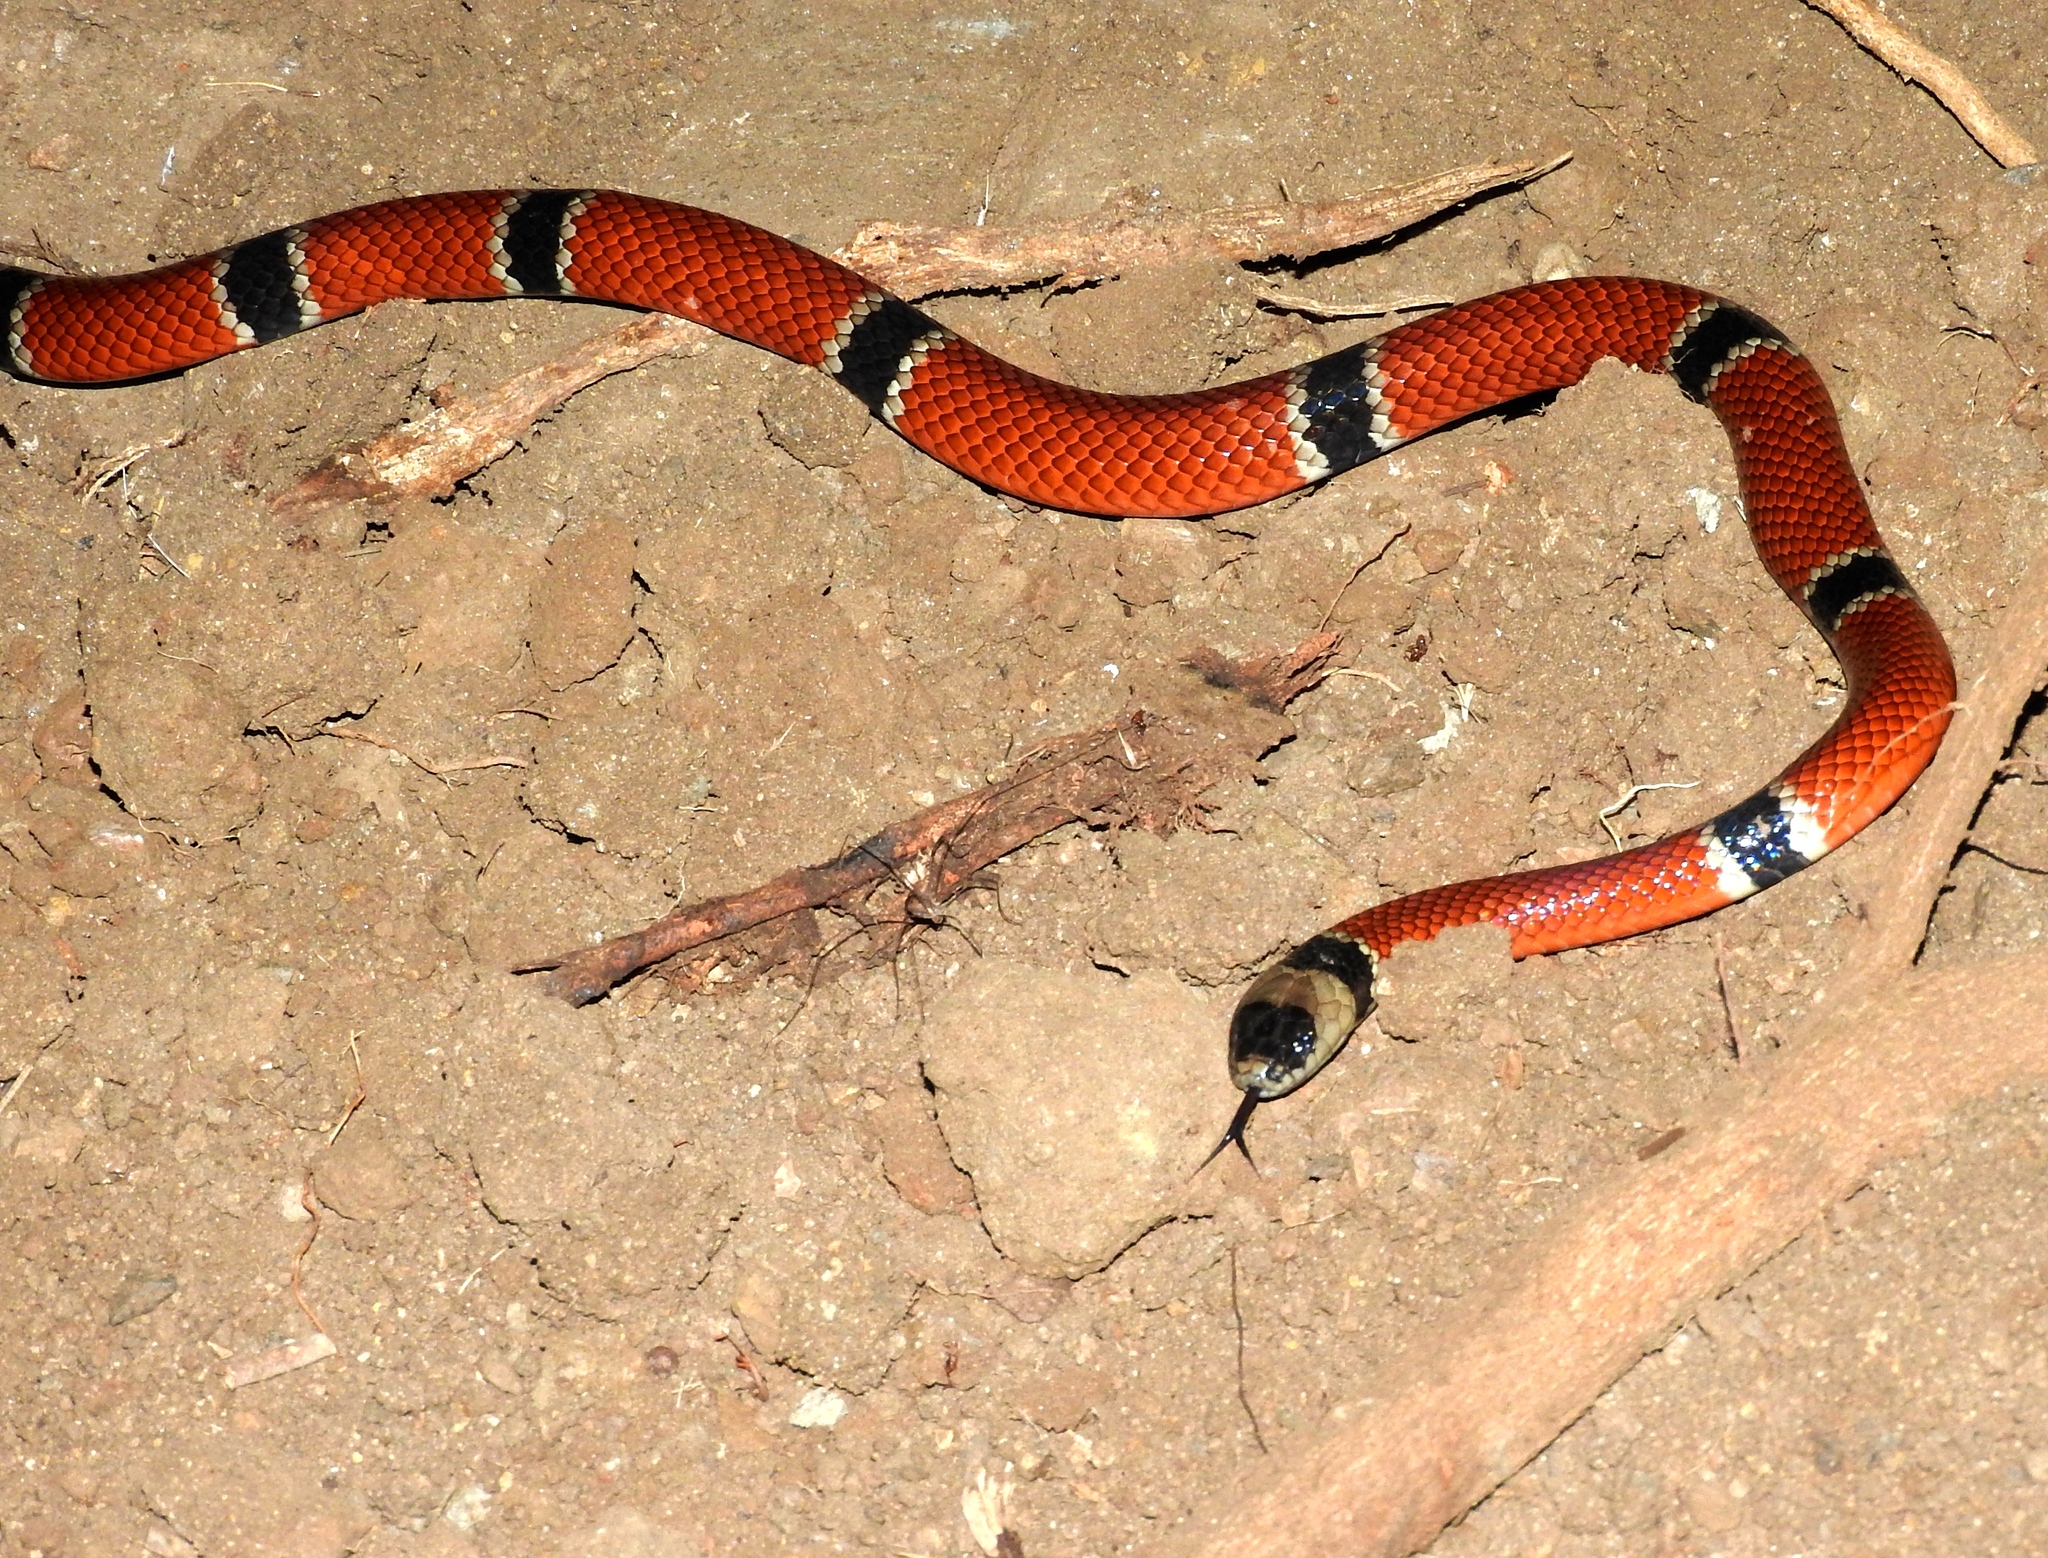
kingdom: Animalia
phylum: Chordata
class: Squamata
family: Elapidae
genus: Micrurus
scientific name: Micrurus distans
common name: Clear-banded coral snake
